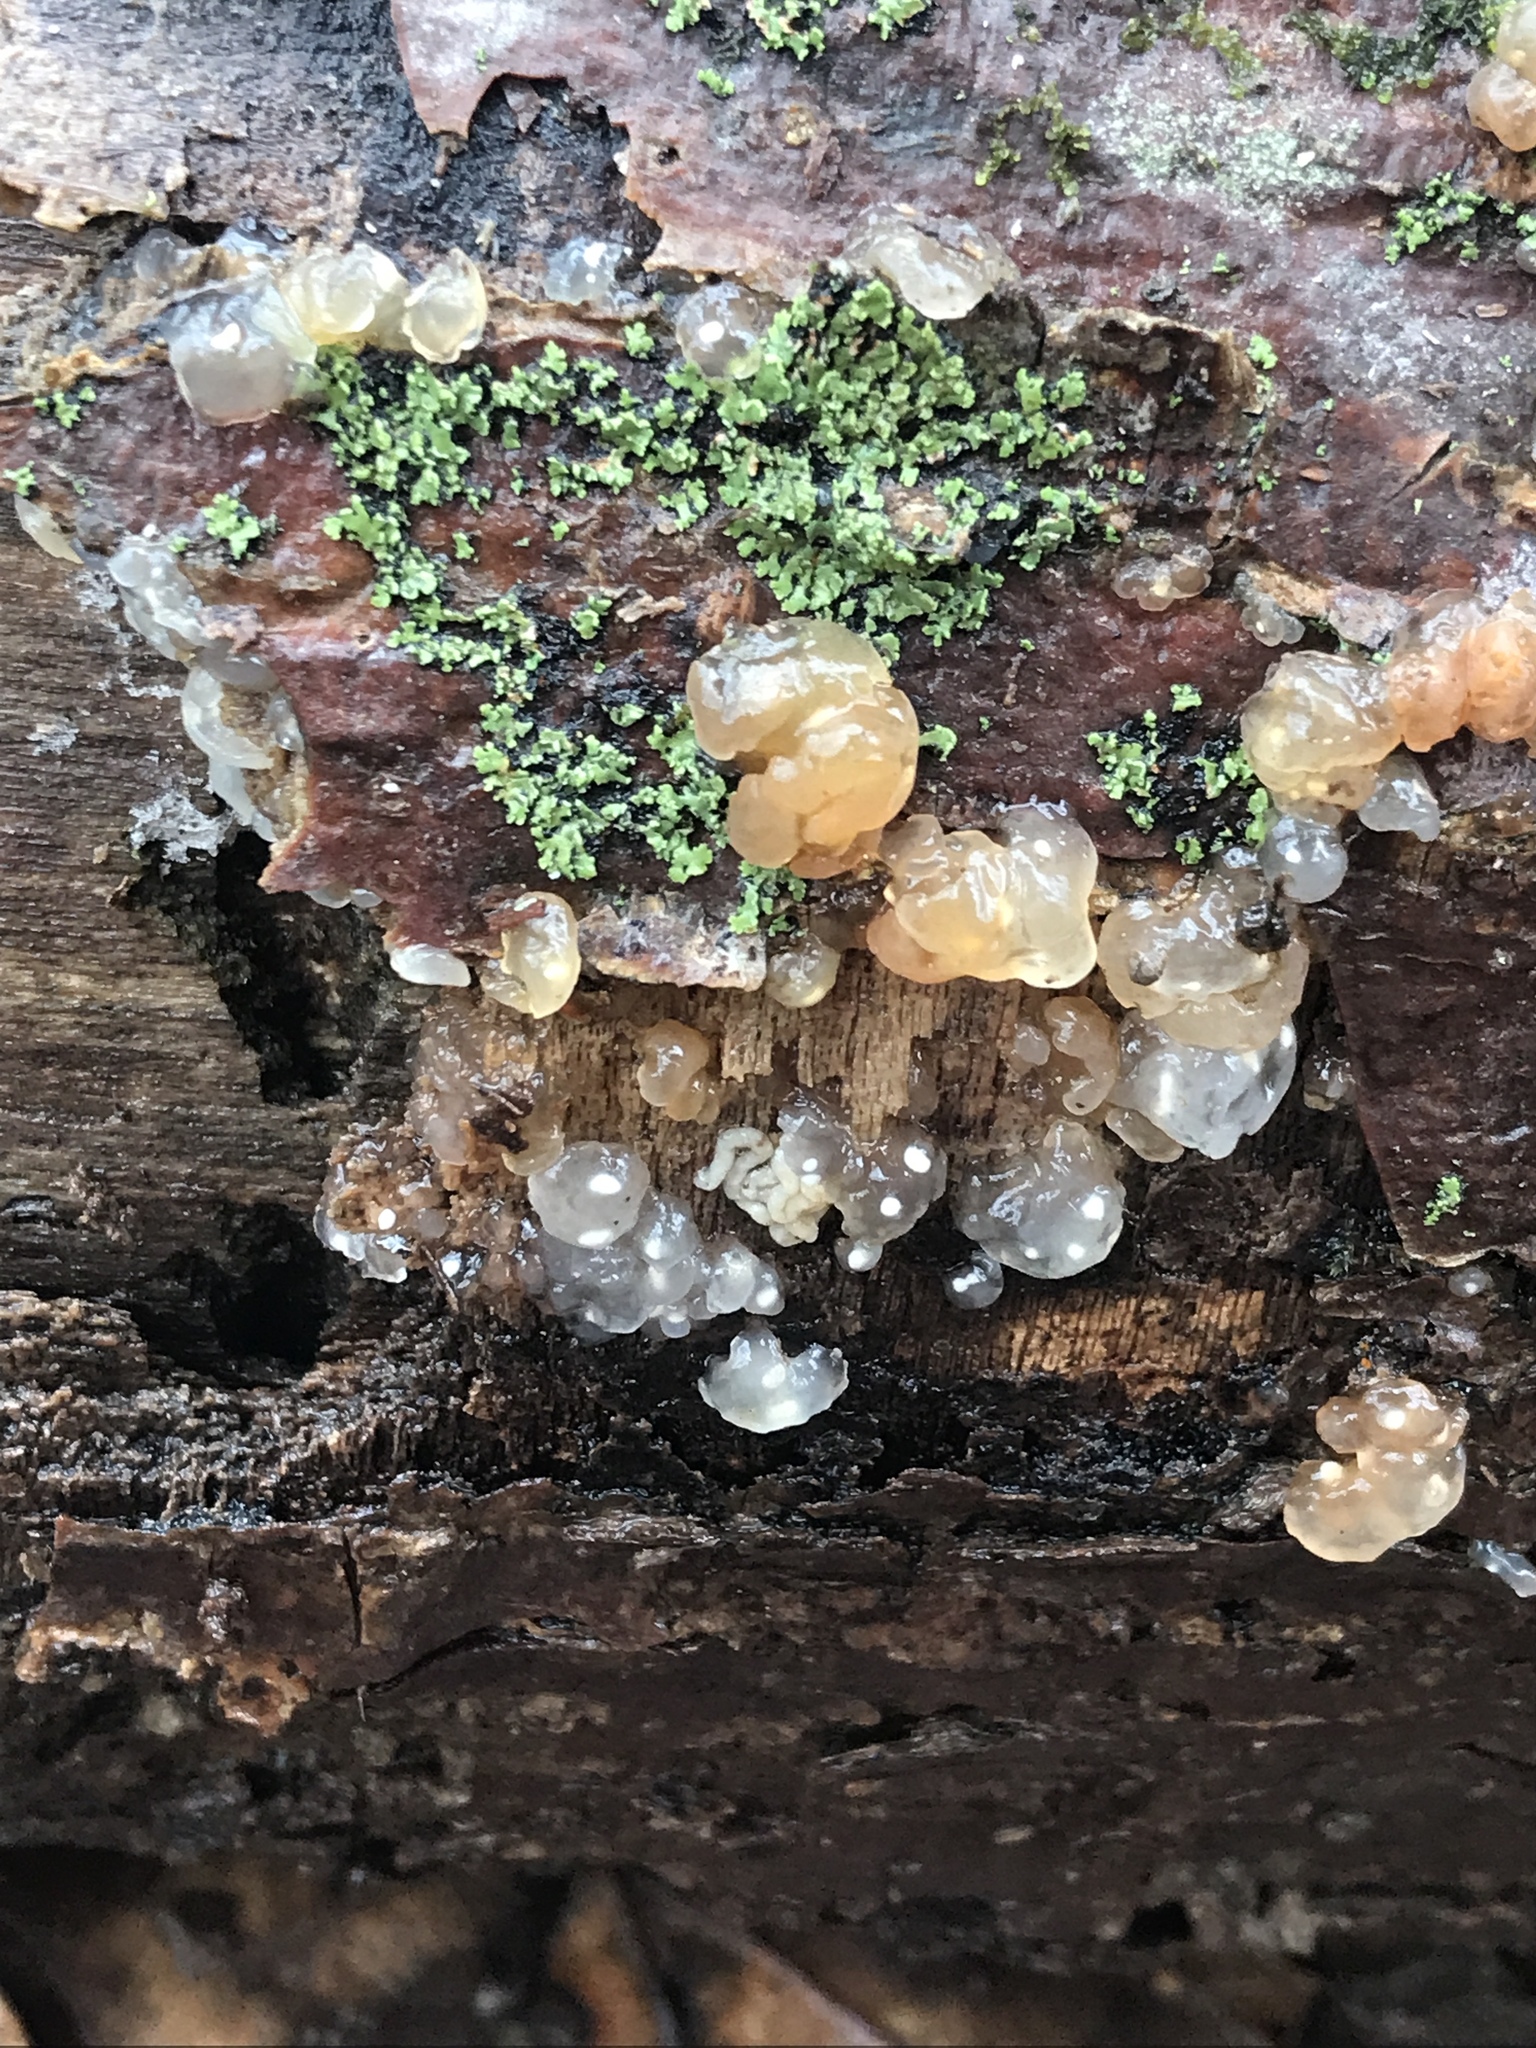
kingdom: Fungi
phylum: Basidiomycota
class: Agaricomycetes
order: Auriculariales
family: Hyaloriaceae
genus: Myxarium
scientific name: Myxarium nucleatum
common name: Crystal brain fungus
